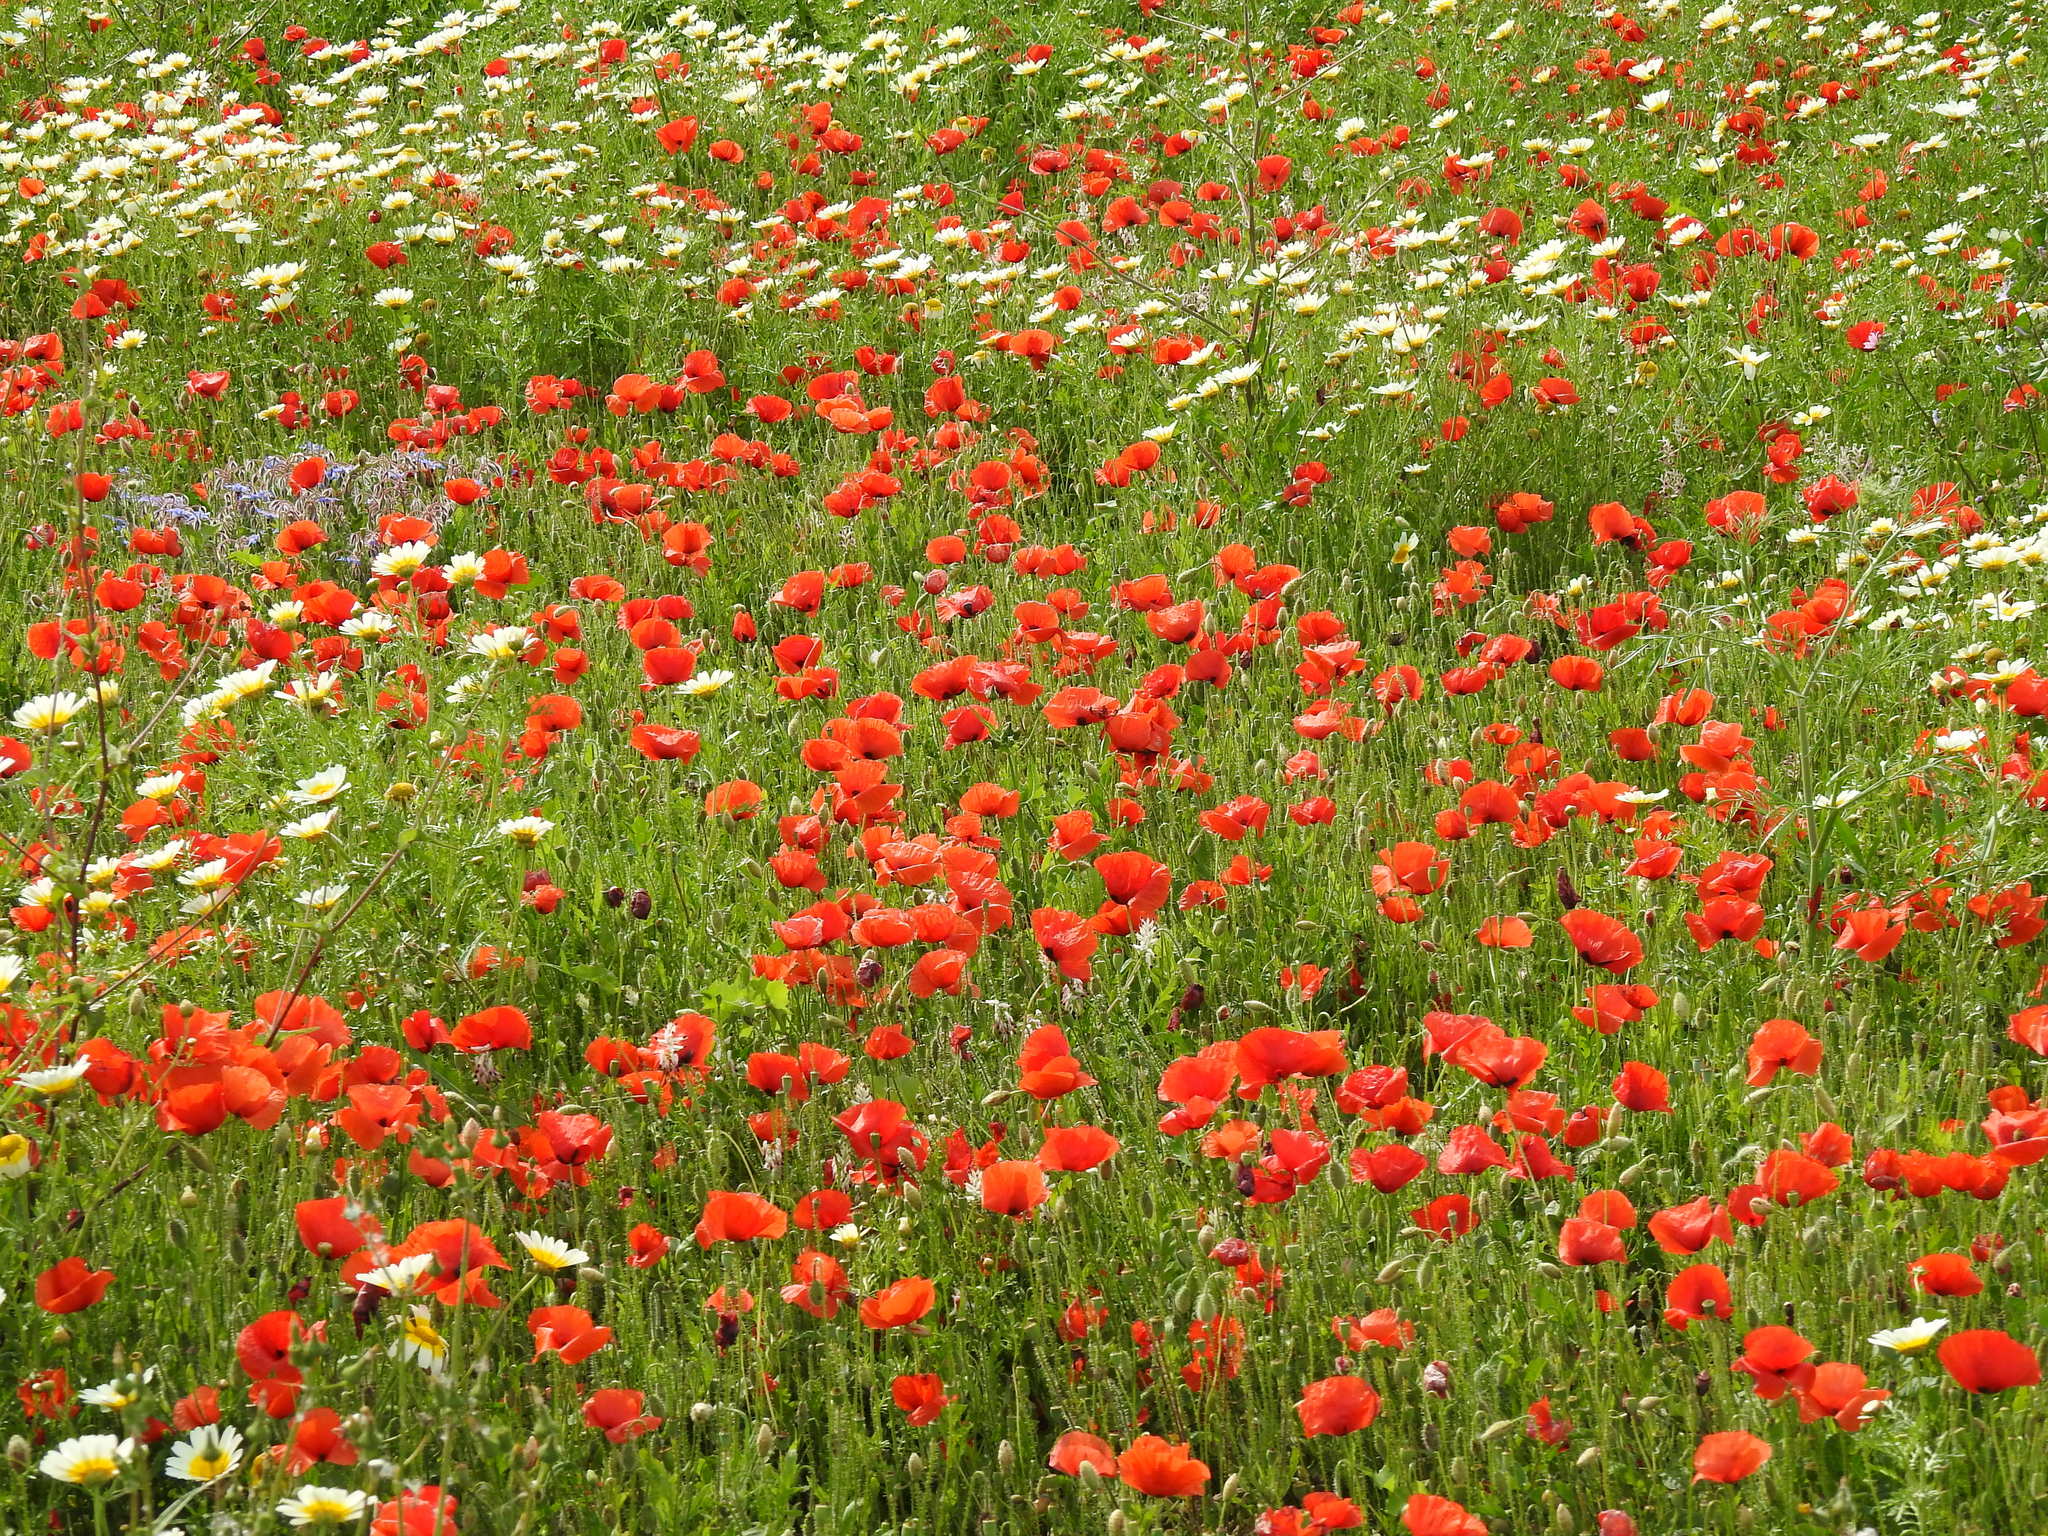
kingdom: Plantae
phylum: Tracheophyta
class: Magnoliopsida
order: Ranunculales
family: Papaveraceae
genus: Papaver
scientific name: Papaver rhoeas
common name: Corn poppy
